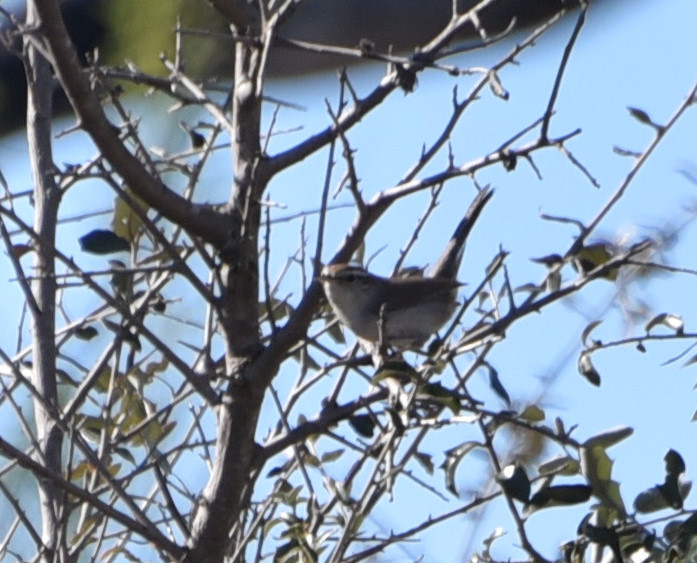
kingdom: Animalia
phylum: Chordata
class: Aves
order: Passeriformes
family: Troglodytidae
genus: Thryomanes
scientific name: Thryomanes bewickii
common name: Bewick's wren
